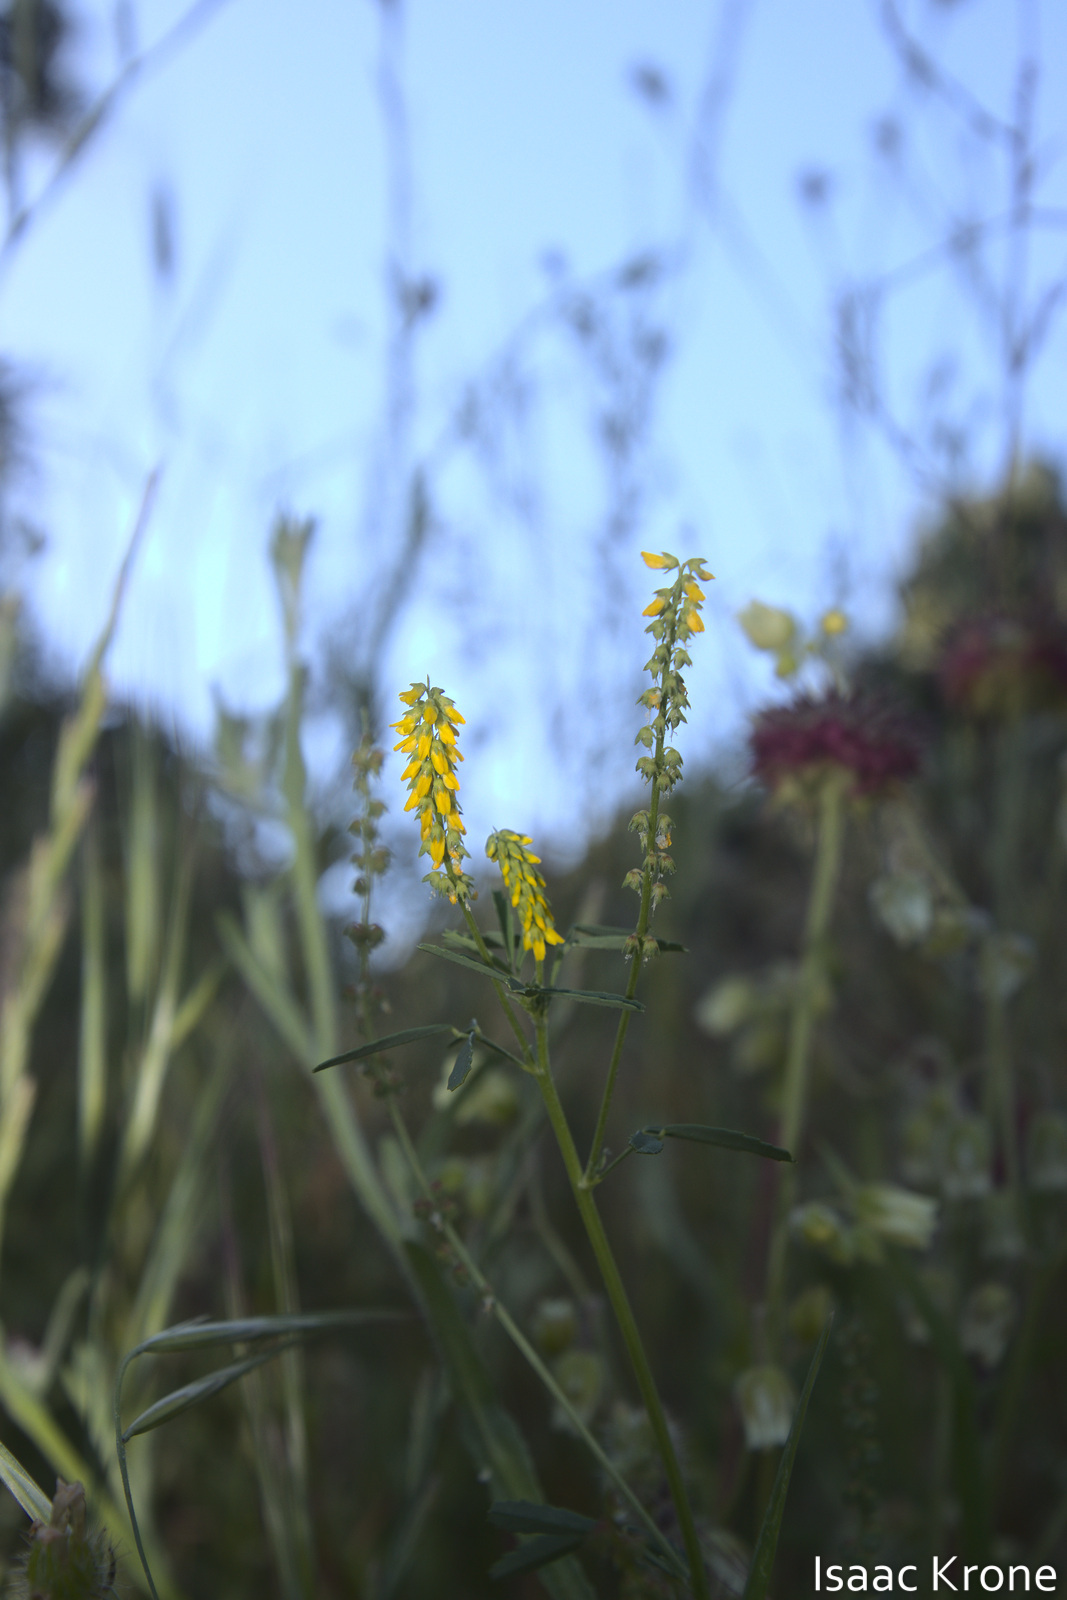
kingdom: Plantae
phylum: Tracheophyta
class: Magnoliopsida
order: Fabales
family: Fabaceae
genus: Melilotus
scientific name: Melilotus indicus
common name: Small melilot
